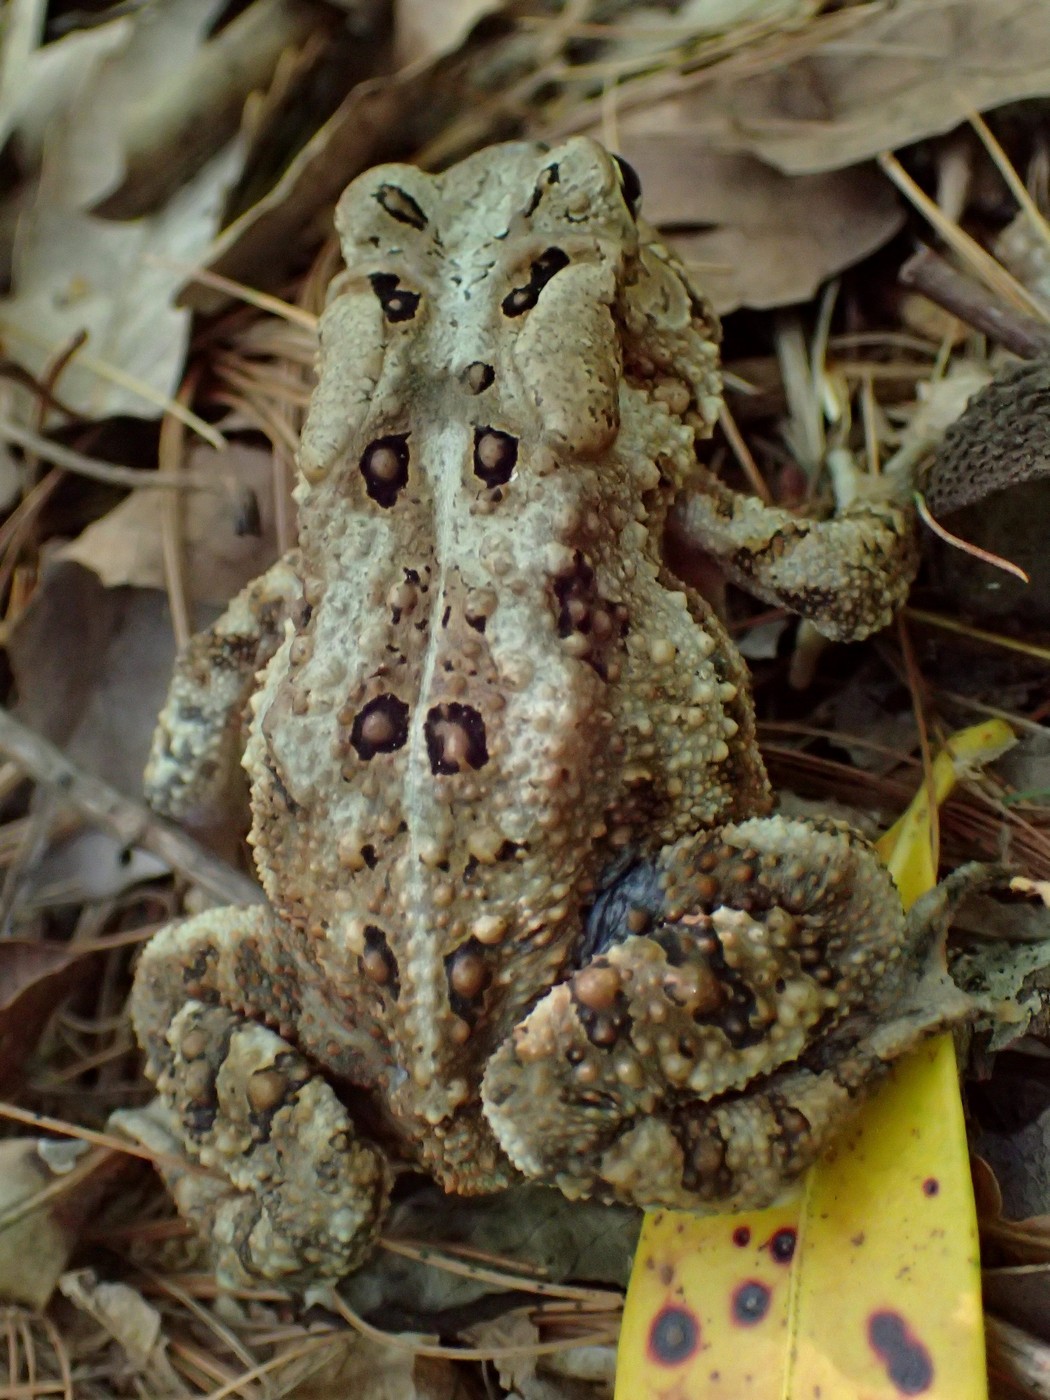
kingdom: Animalia
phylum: Chordata
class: Amphibia
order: Anura
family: Bufonidae
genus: Anaxyrus
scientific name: Anaxyrus americanus
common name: American toad
